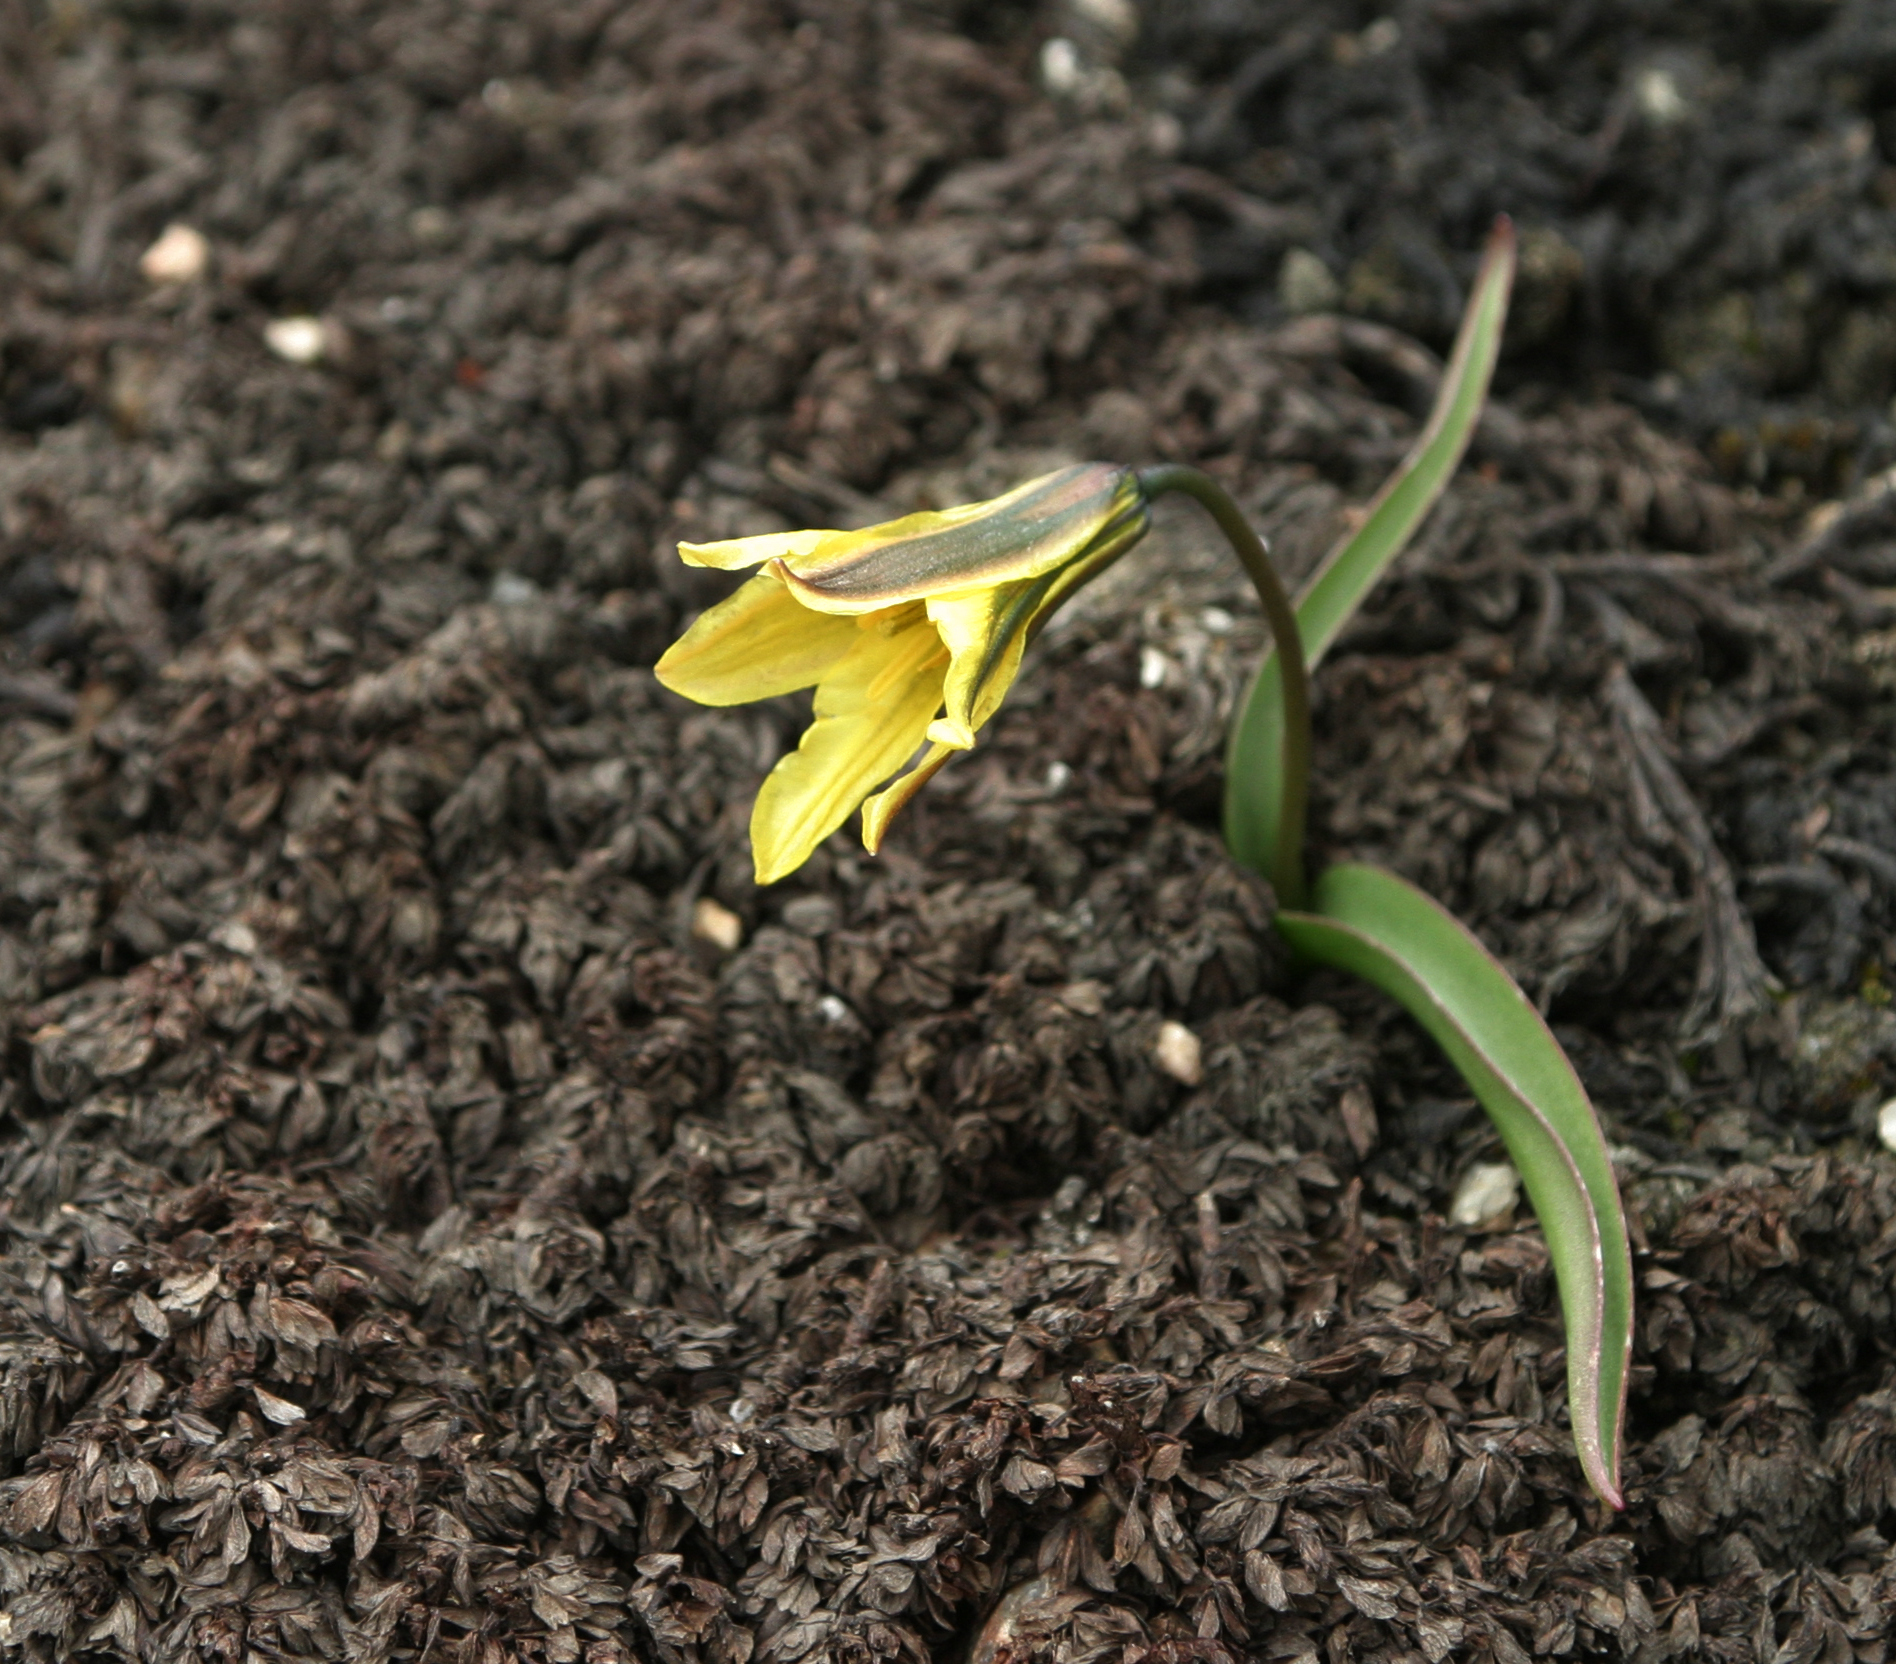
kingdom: Plantae
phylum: Tracheophyta
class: Liliopsida
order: Liliales
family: Liliaceae
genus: Tulipa
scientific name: Tulipa heterophylla
